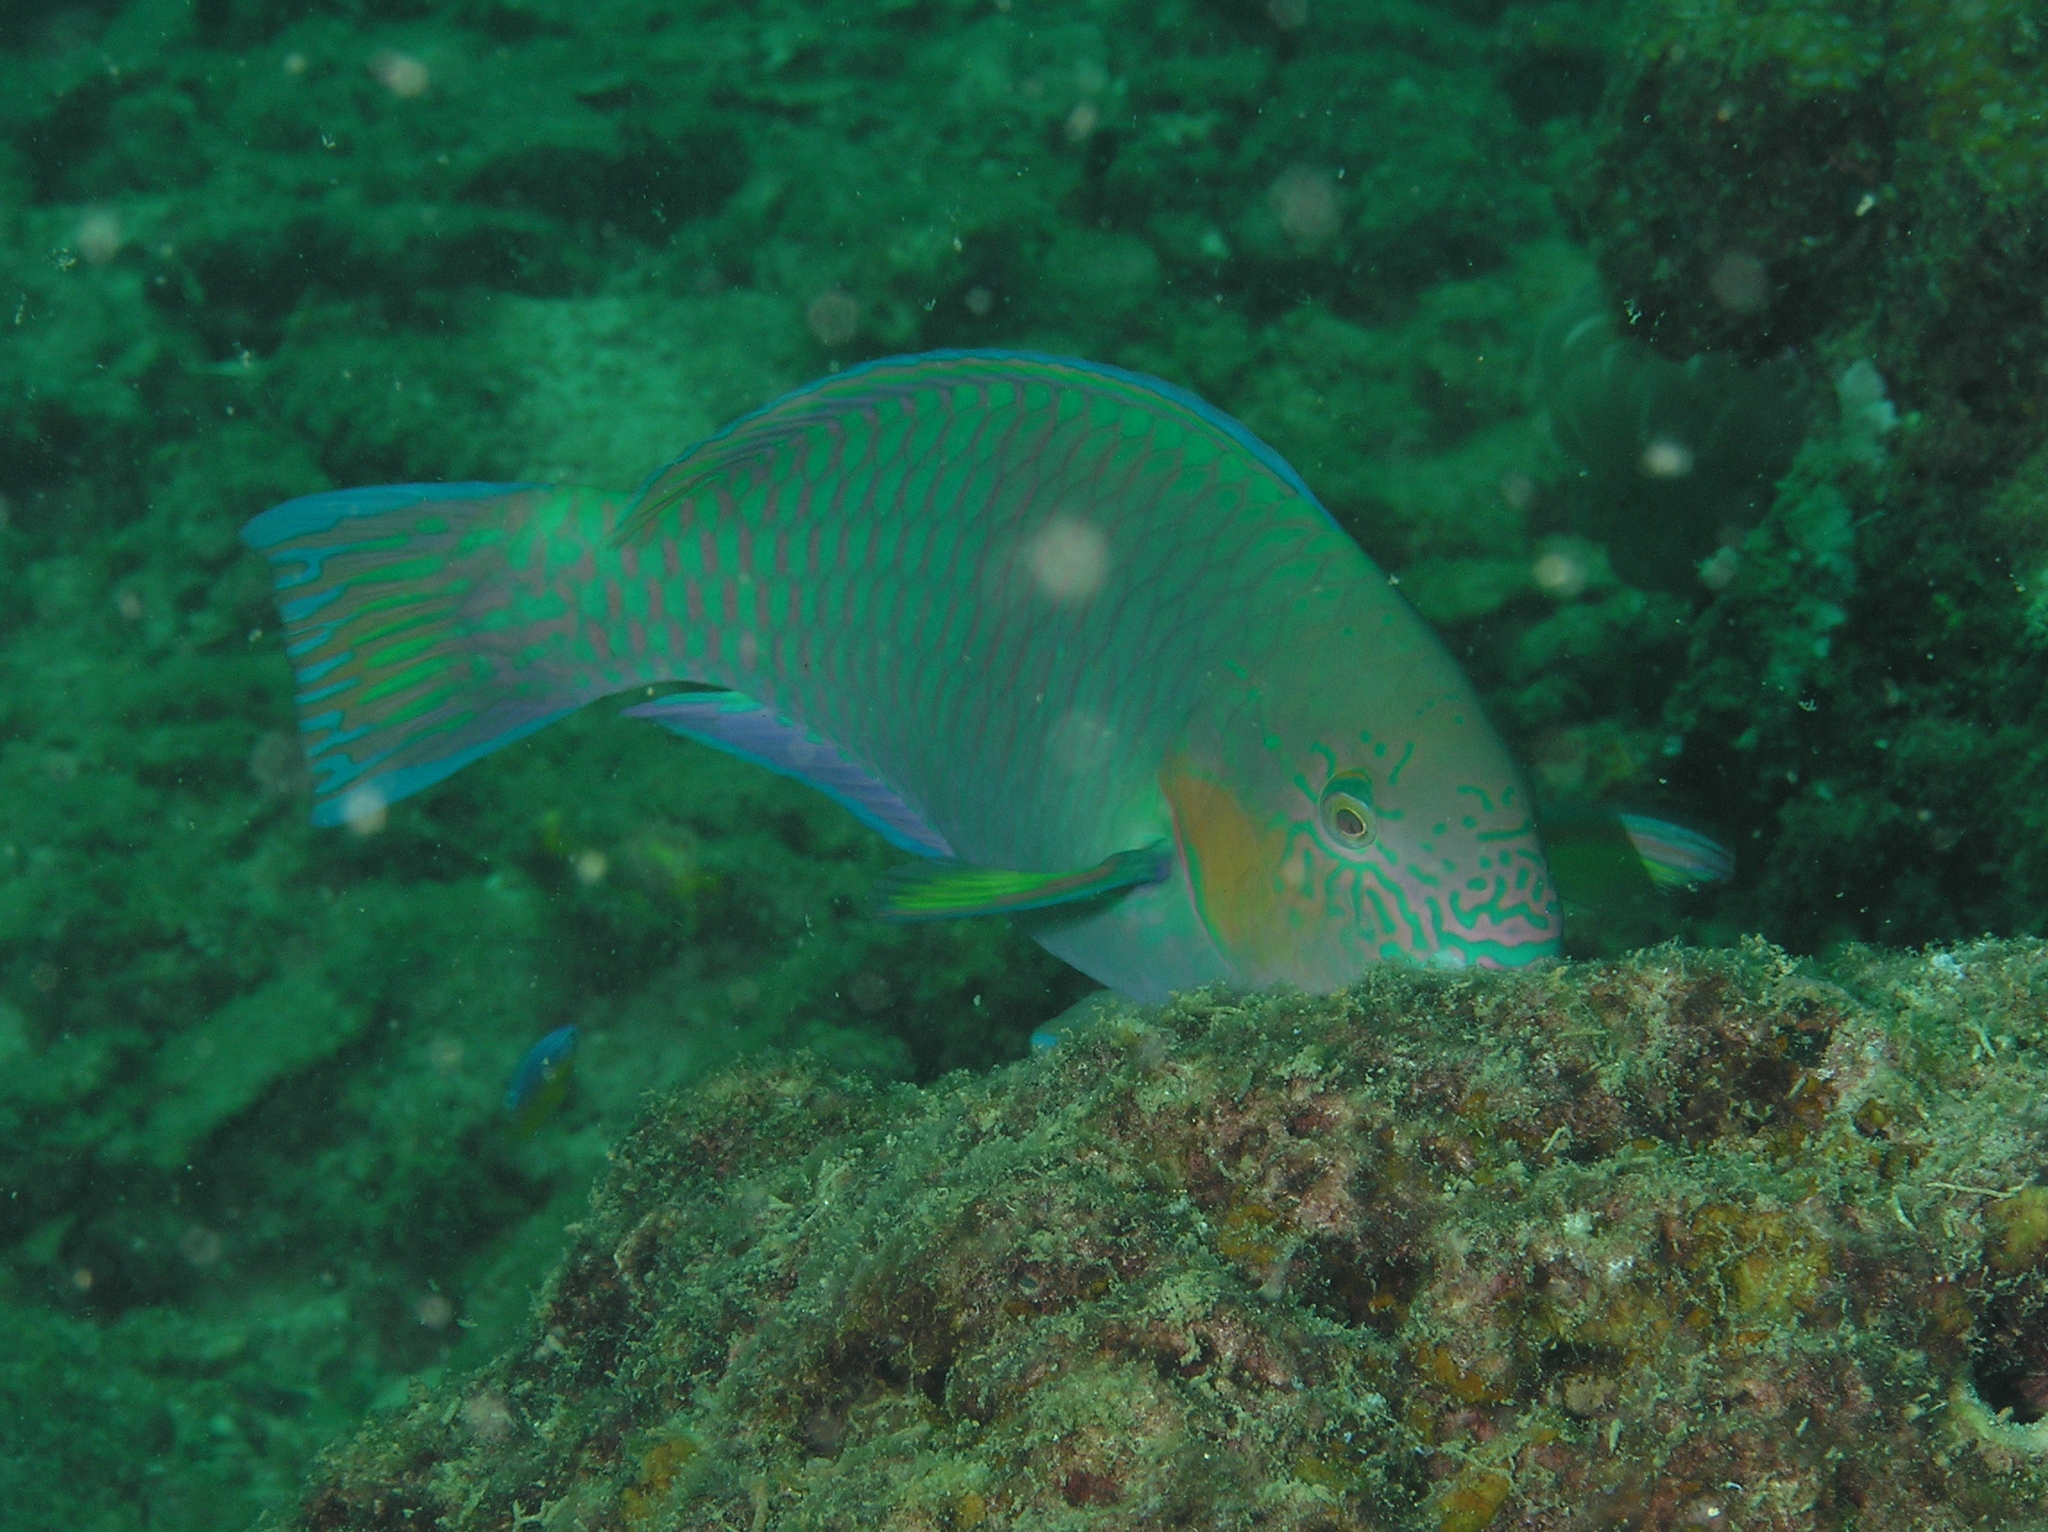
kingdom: Animalia
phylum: Chordata
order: Perciformes
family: Scaridae
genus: Scarus
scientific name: Scarus rivulatus
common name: Surf parrotfish
